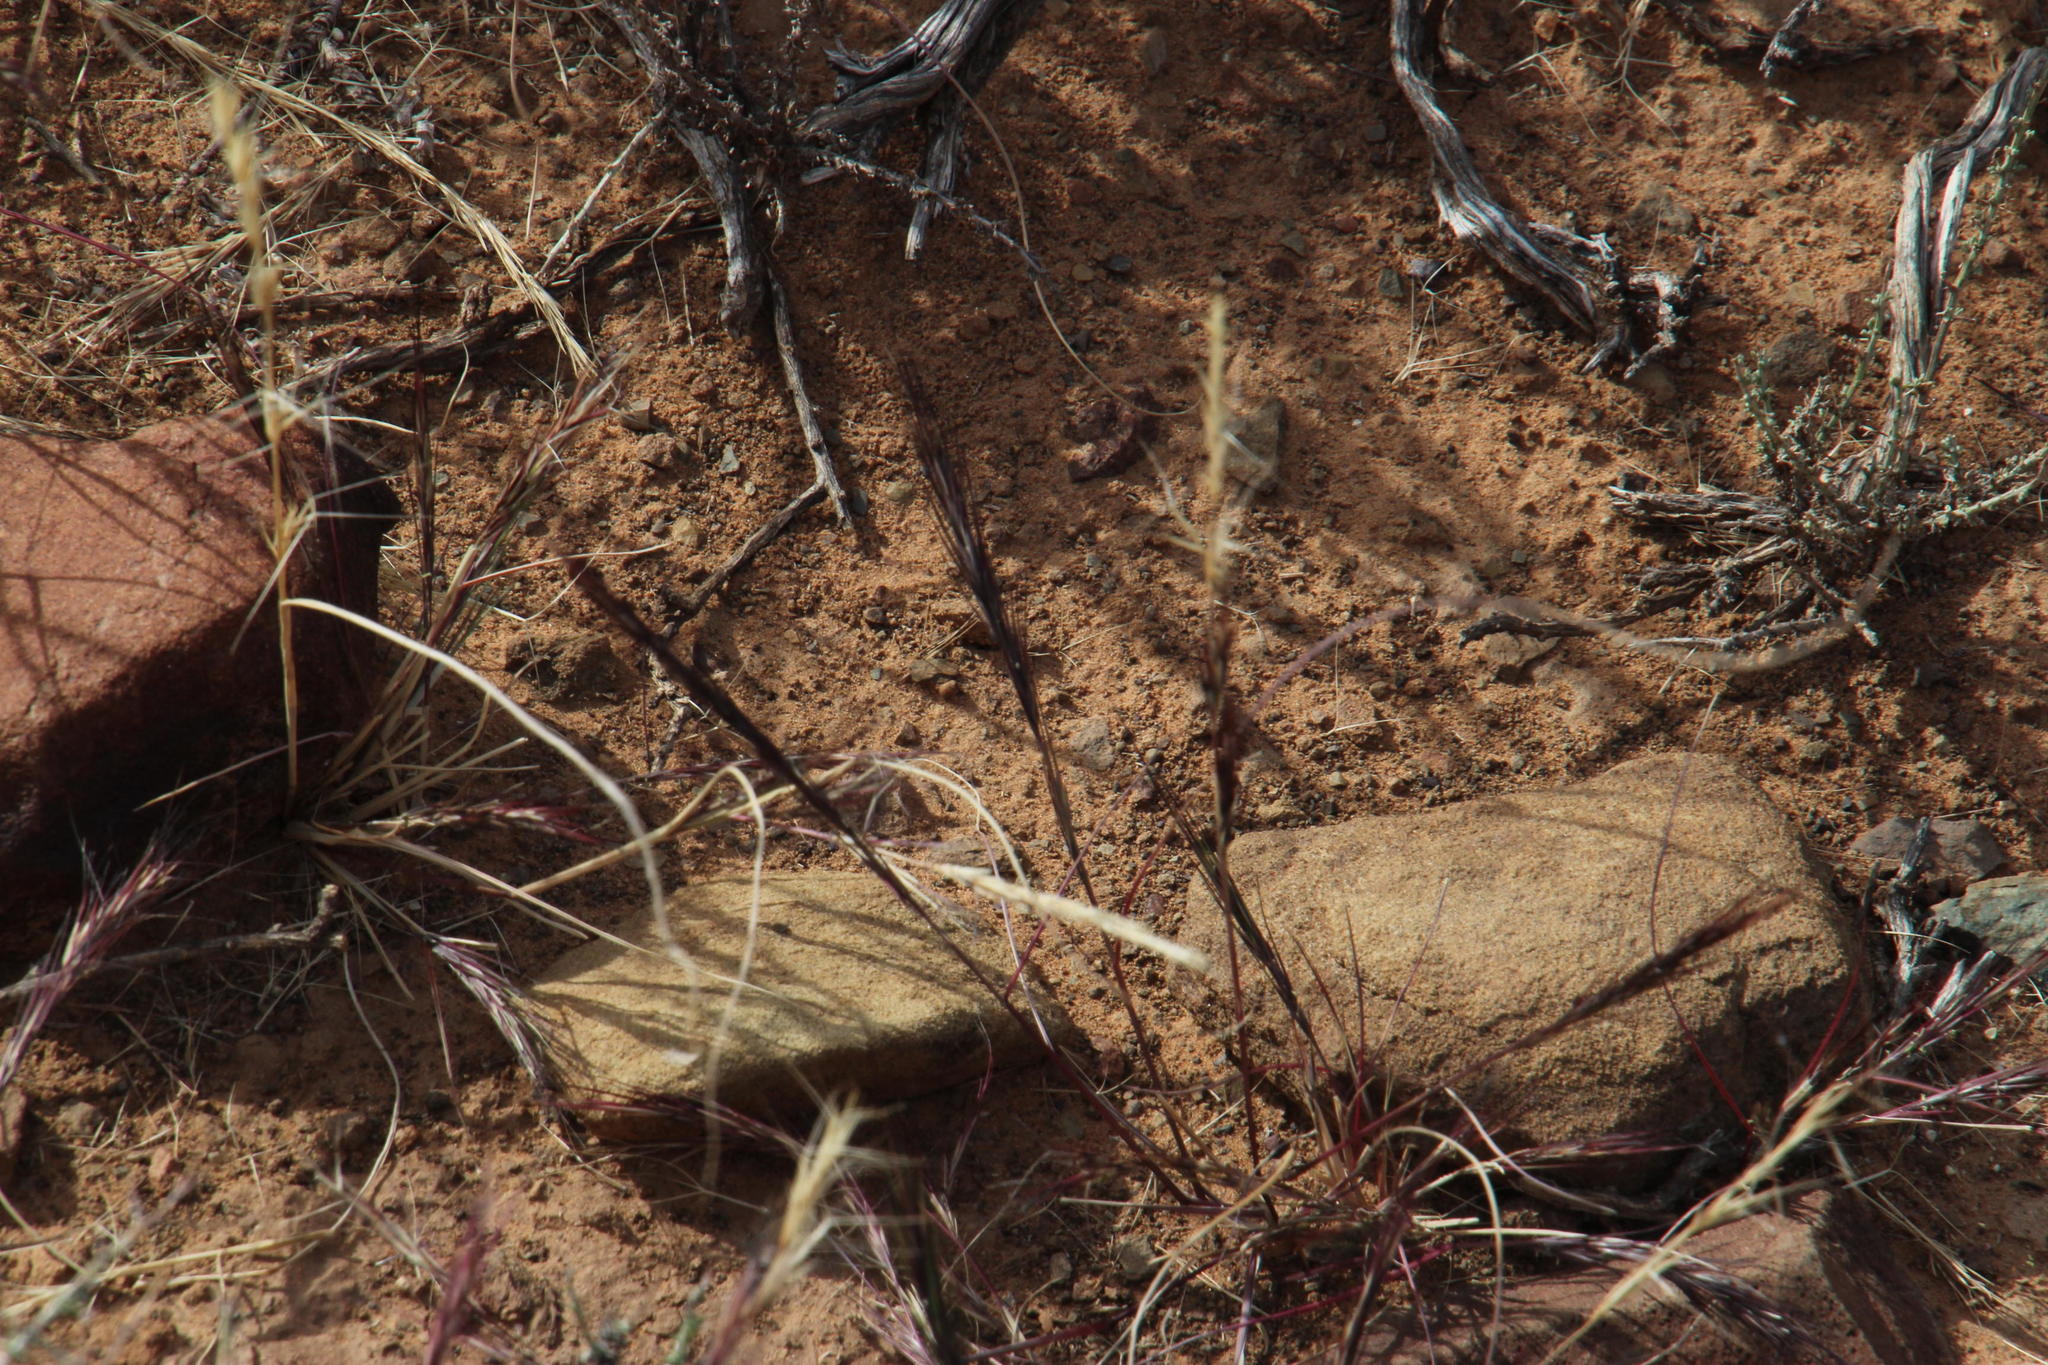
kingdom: Plantae
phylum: Tracheophyta
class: Liliopsida
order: Poales
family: Poaceae
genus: Aristida
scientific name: Aristida adscensionis
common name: Sixweeks threeawn
